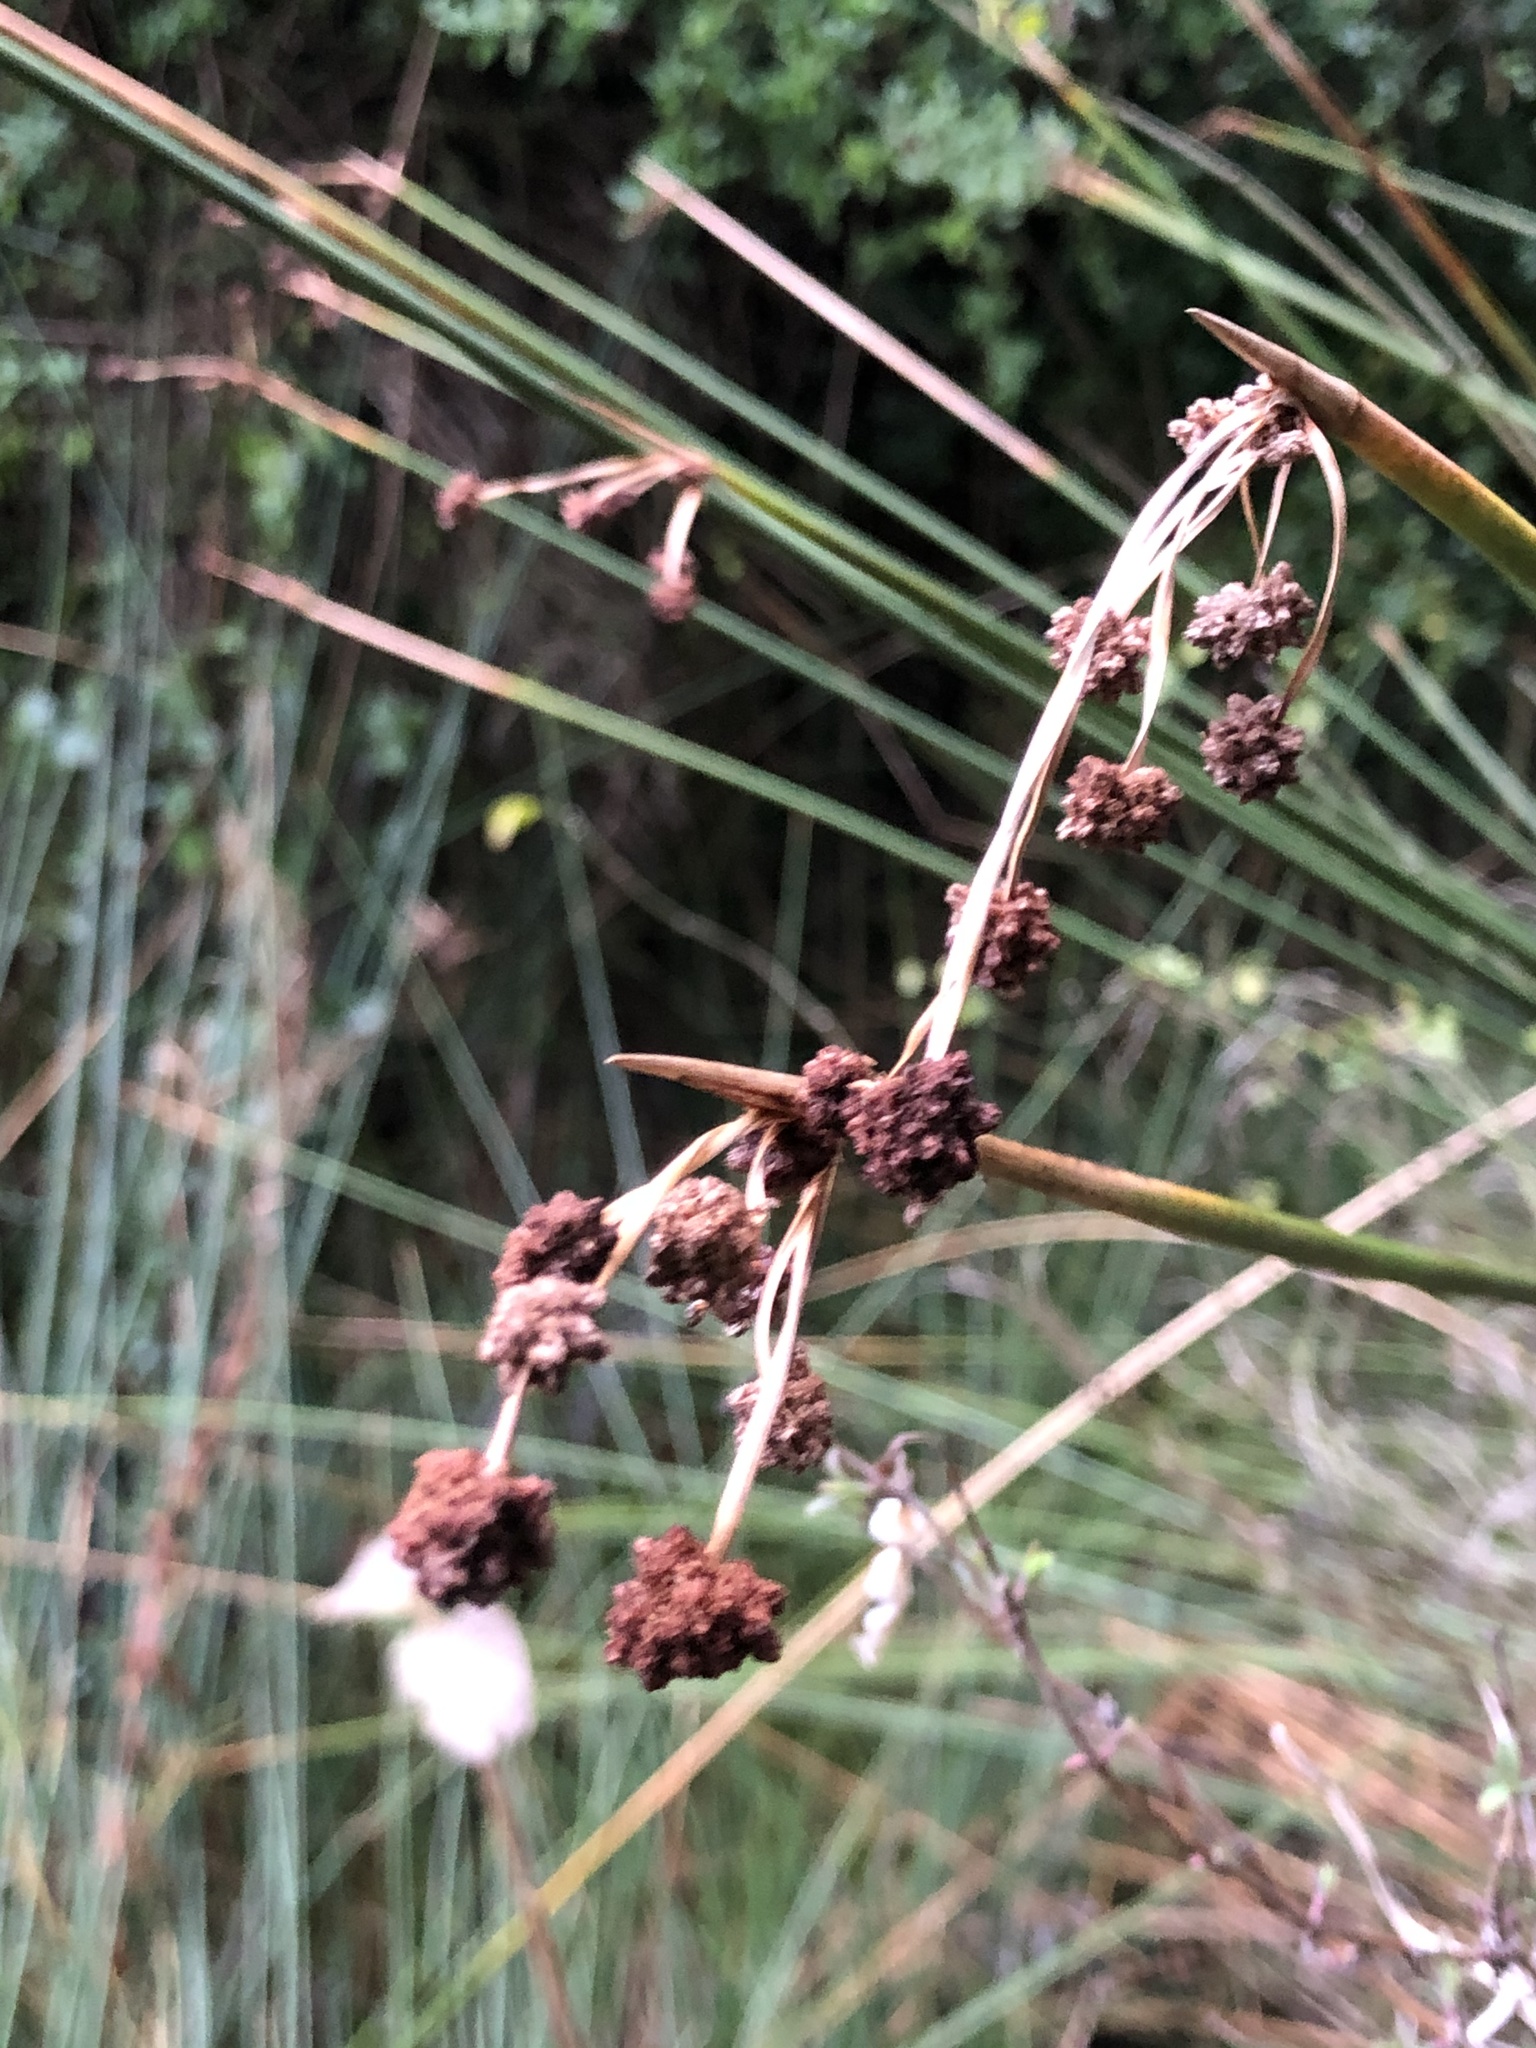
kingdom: Plantae
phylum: Tracheophyta
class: Liliopsida
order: Poales
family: Cyperaceae
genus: Scirpoides
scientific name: Scirpoides holoschoenus
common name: Round-headed club-rush
